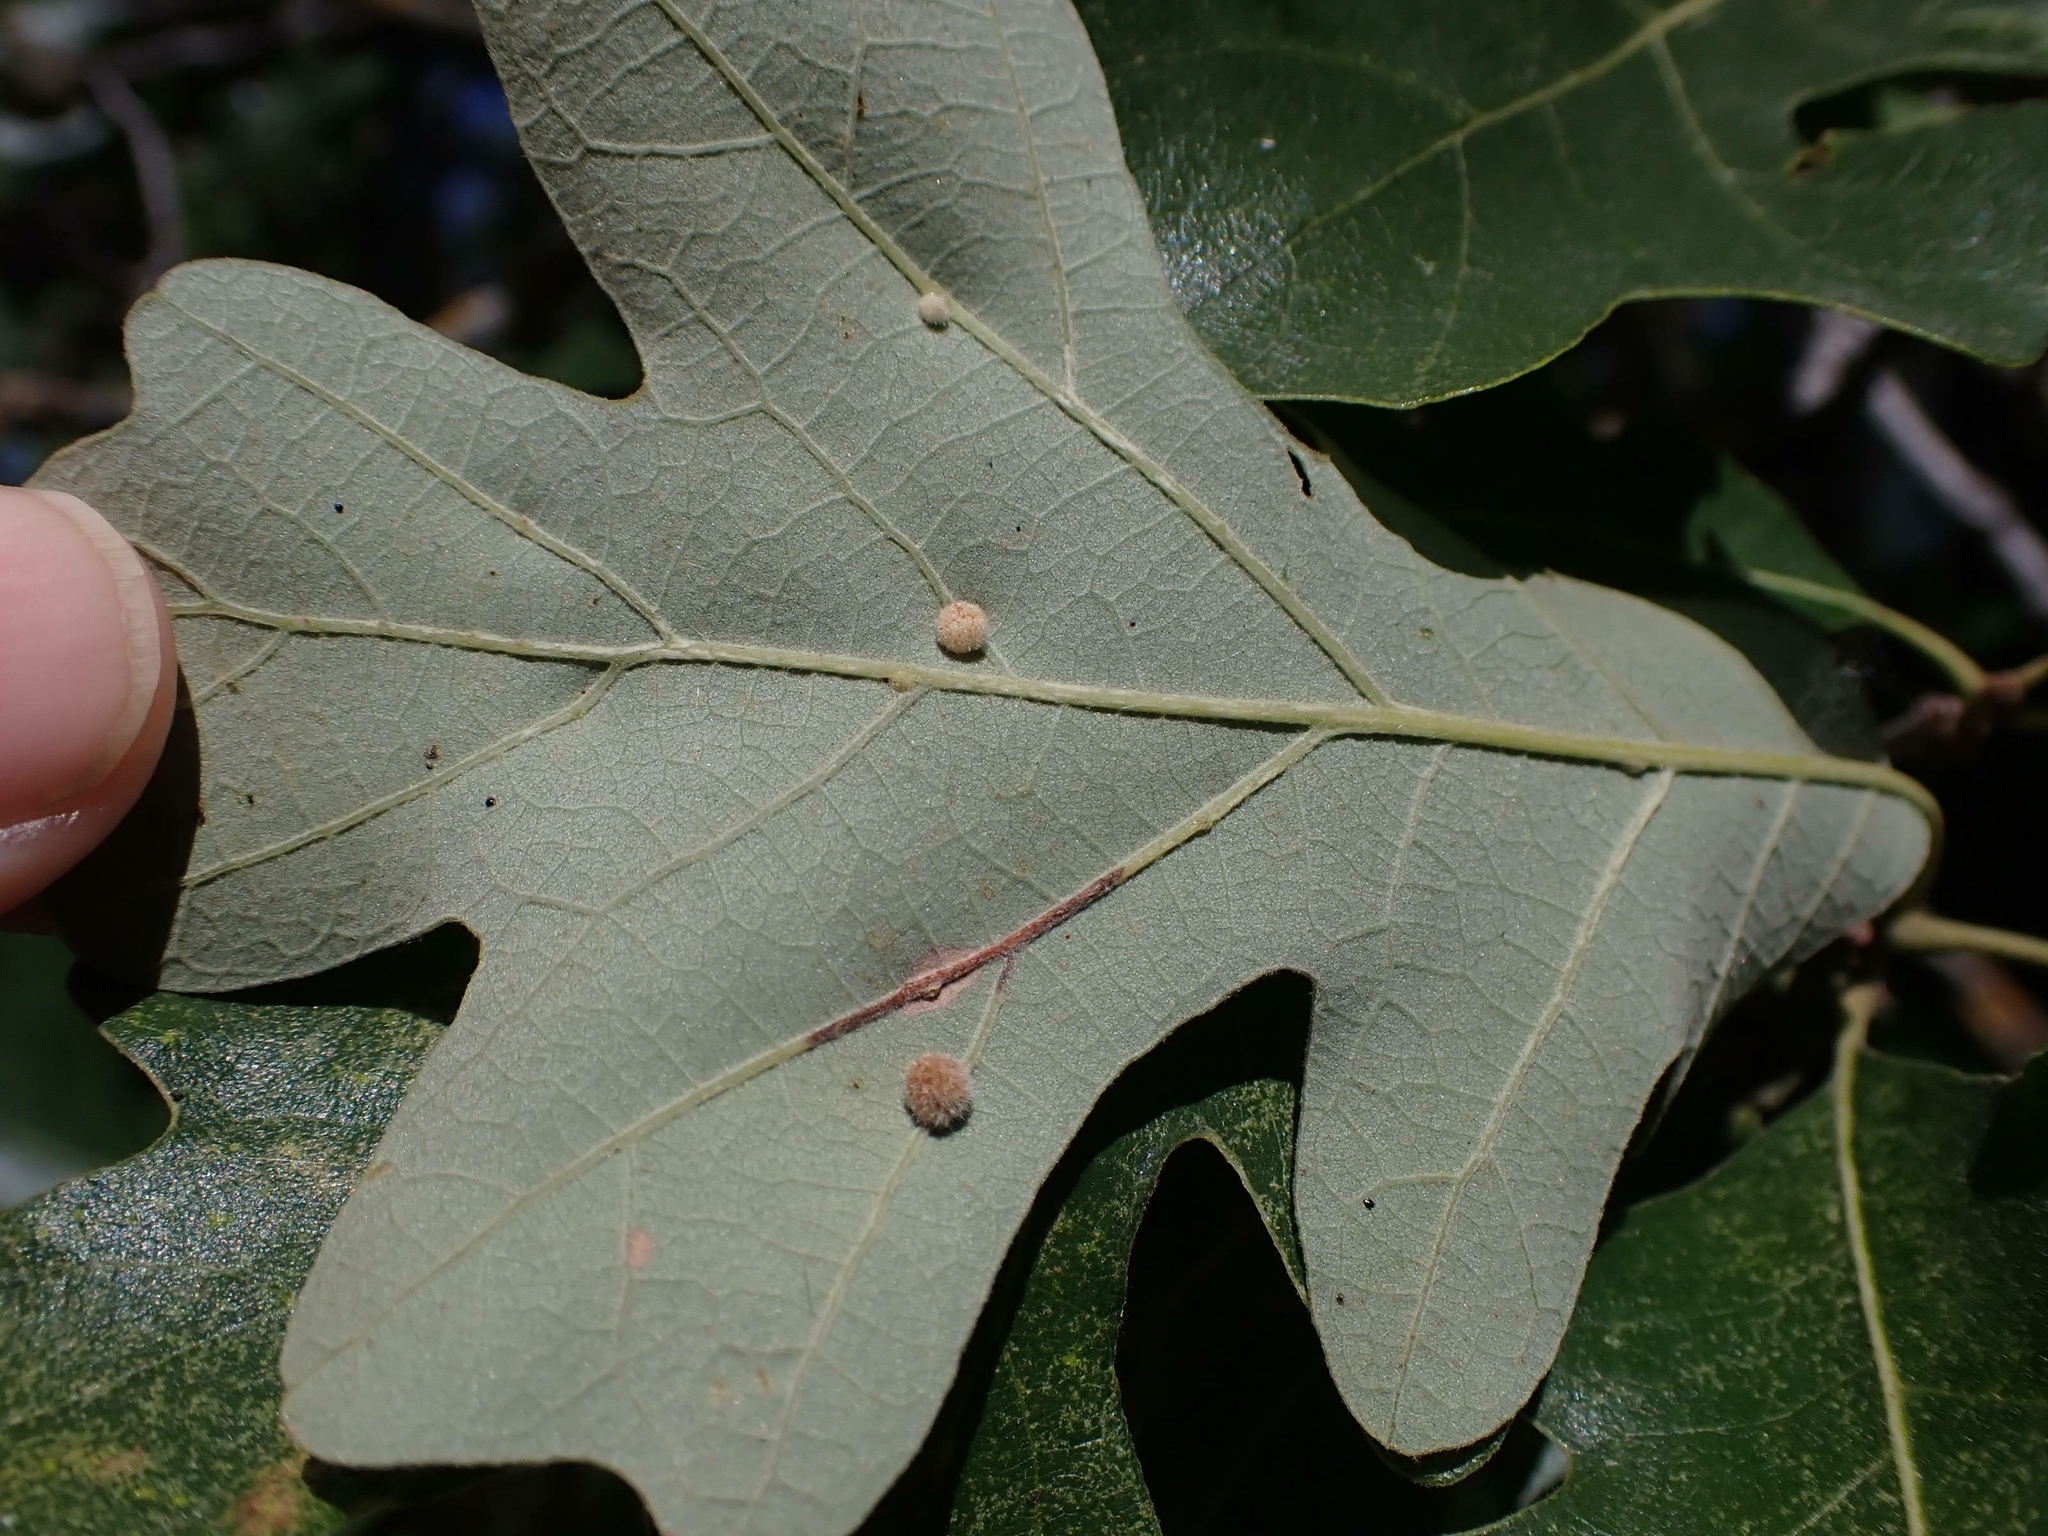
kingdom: Animalia
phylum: Arthropoda
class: Insecta
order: Hymenoptera
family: Cynipidae
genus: Philonix
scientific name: Philonix fulvicollis
